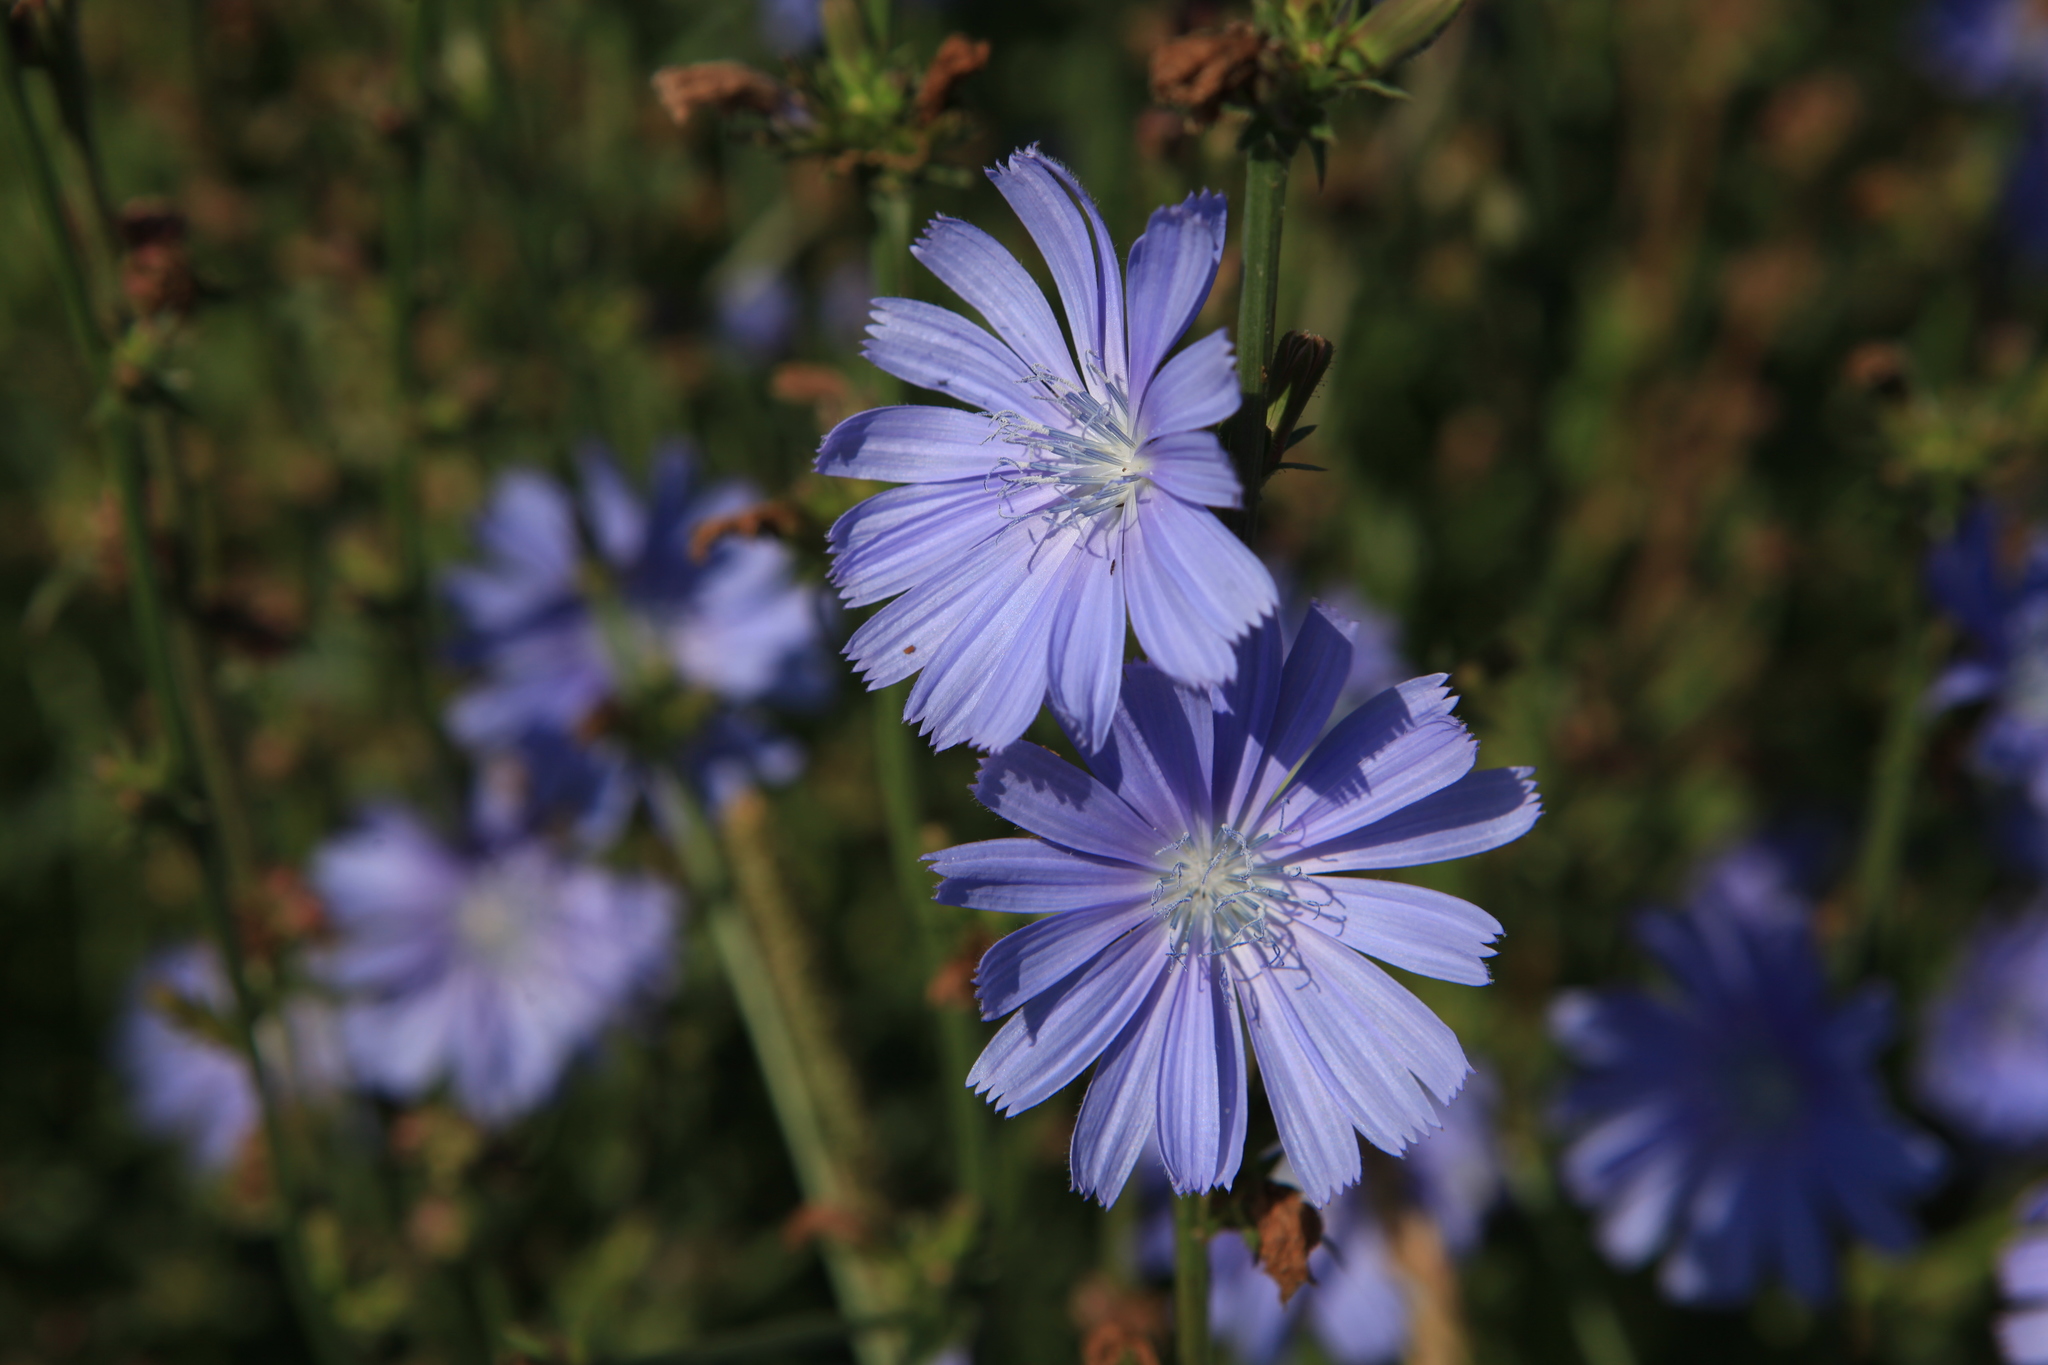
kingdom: Plantae
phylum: Tracheophyta
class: Magnoliopsida
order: Asterales
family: Asteraceae
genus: Cichorium
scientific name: Cichorium intybus
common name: Chicory
